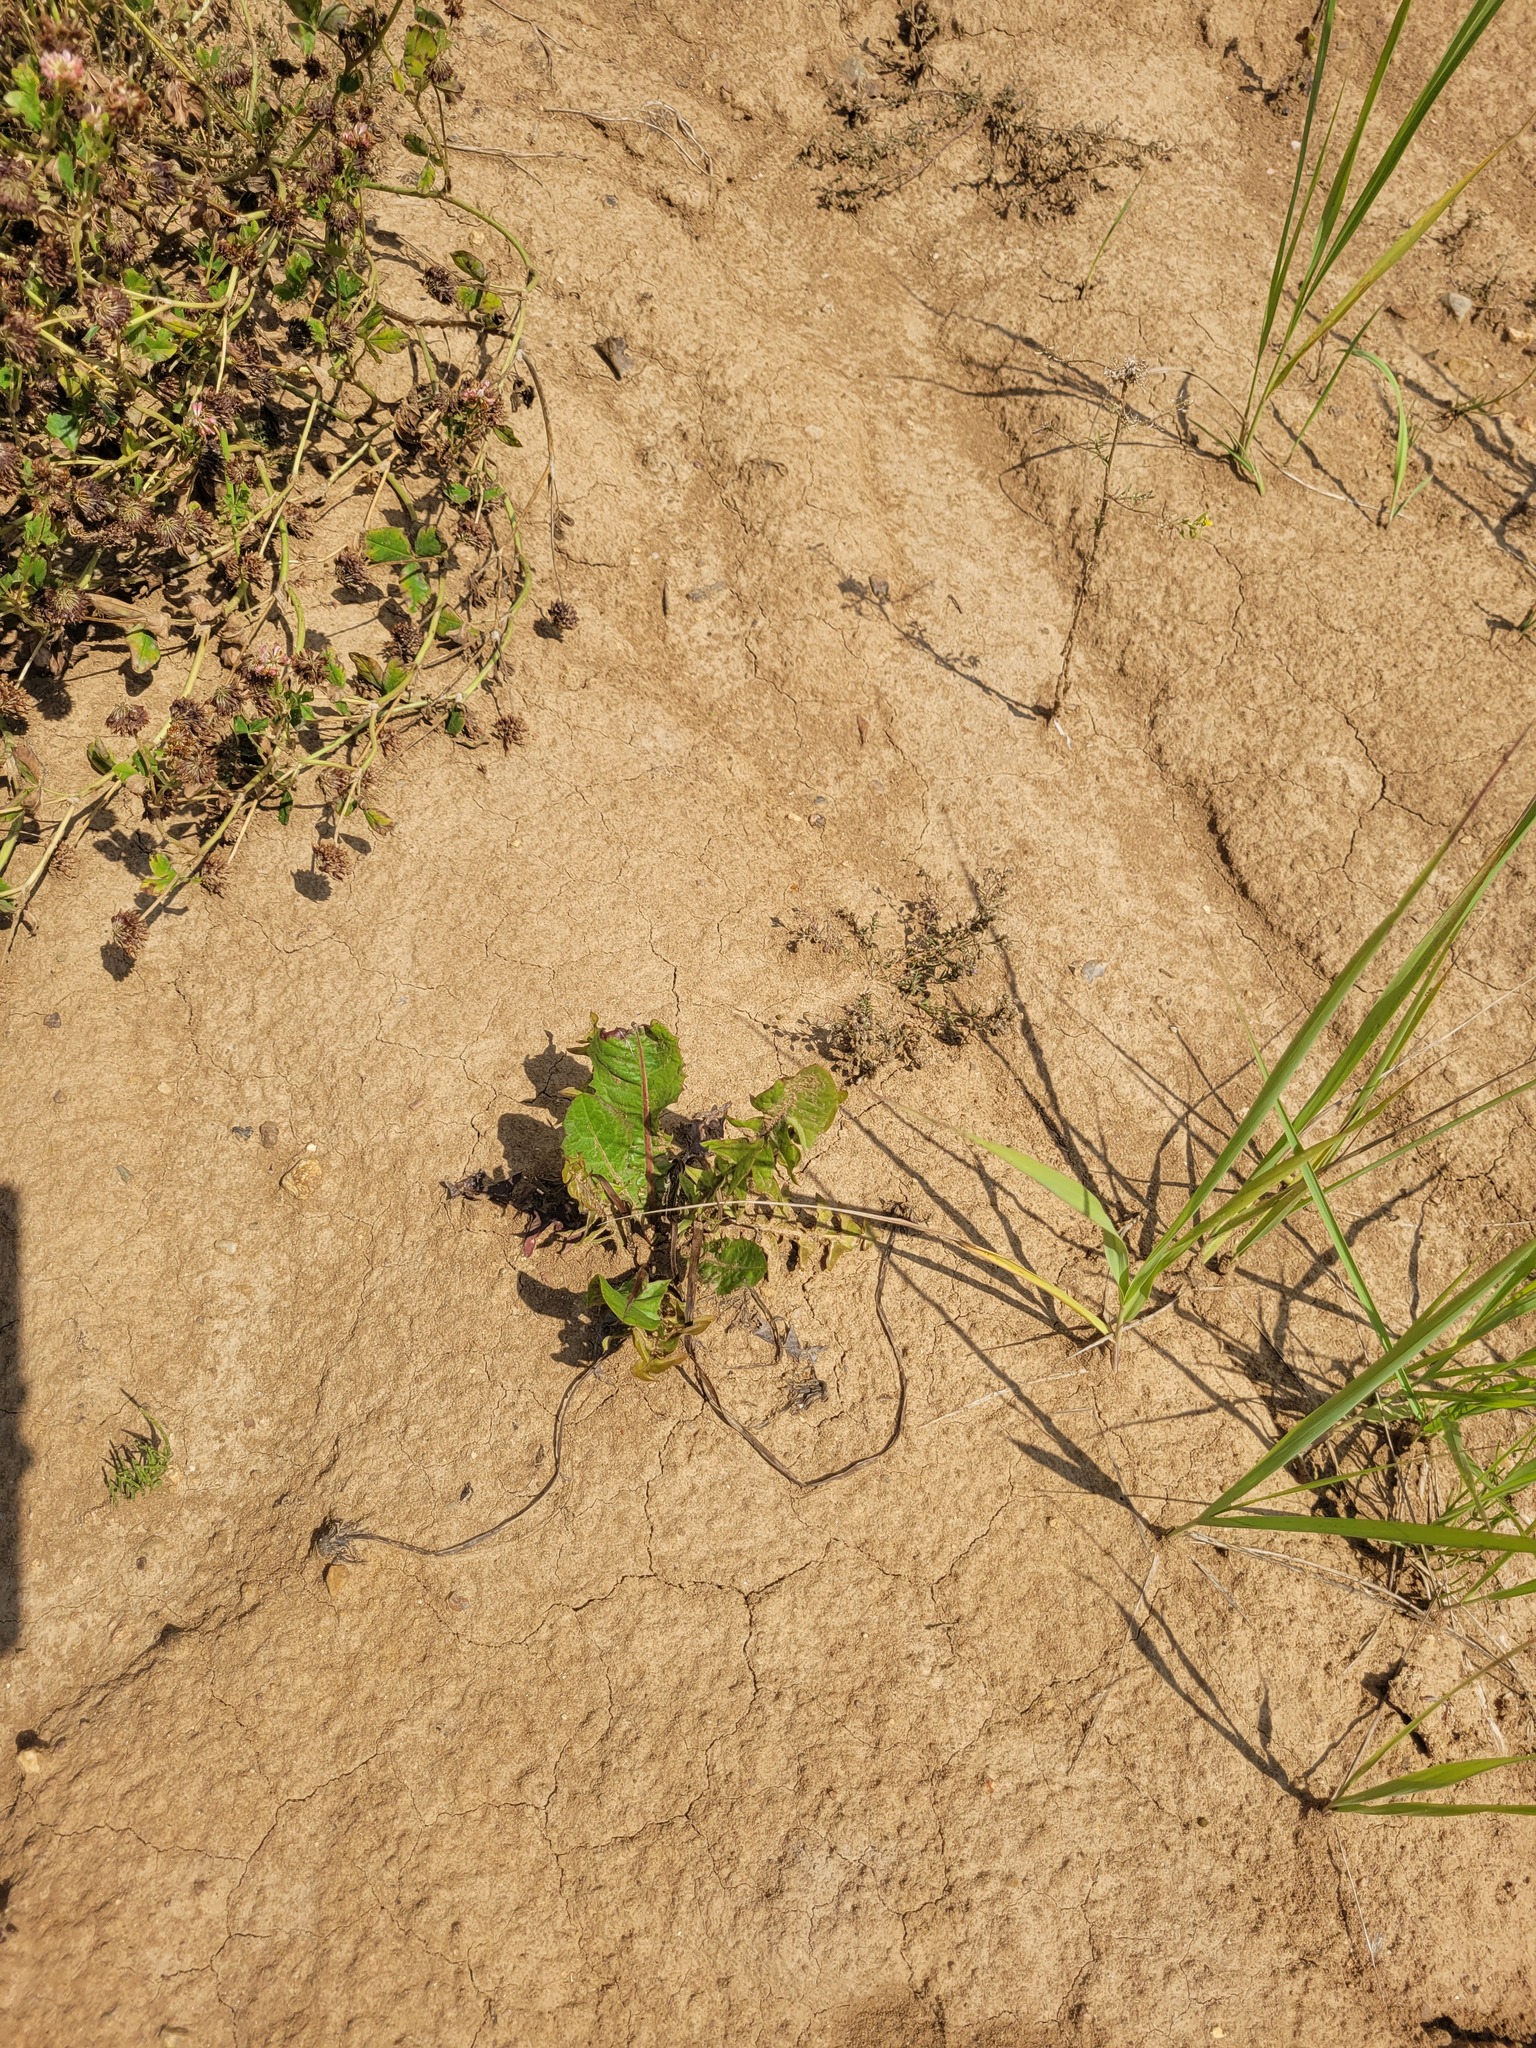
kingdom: Plantae
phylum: Tracheophyta
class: Magnoliopsida
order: Asterales
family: Asteraceae
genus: Taraxacum
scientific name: Taraxacum officinale
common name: Common dandelion
